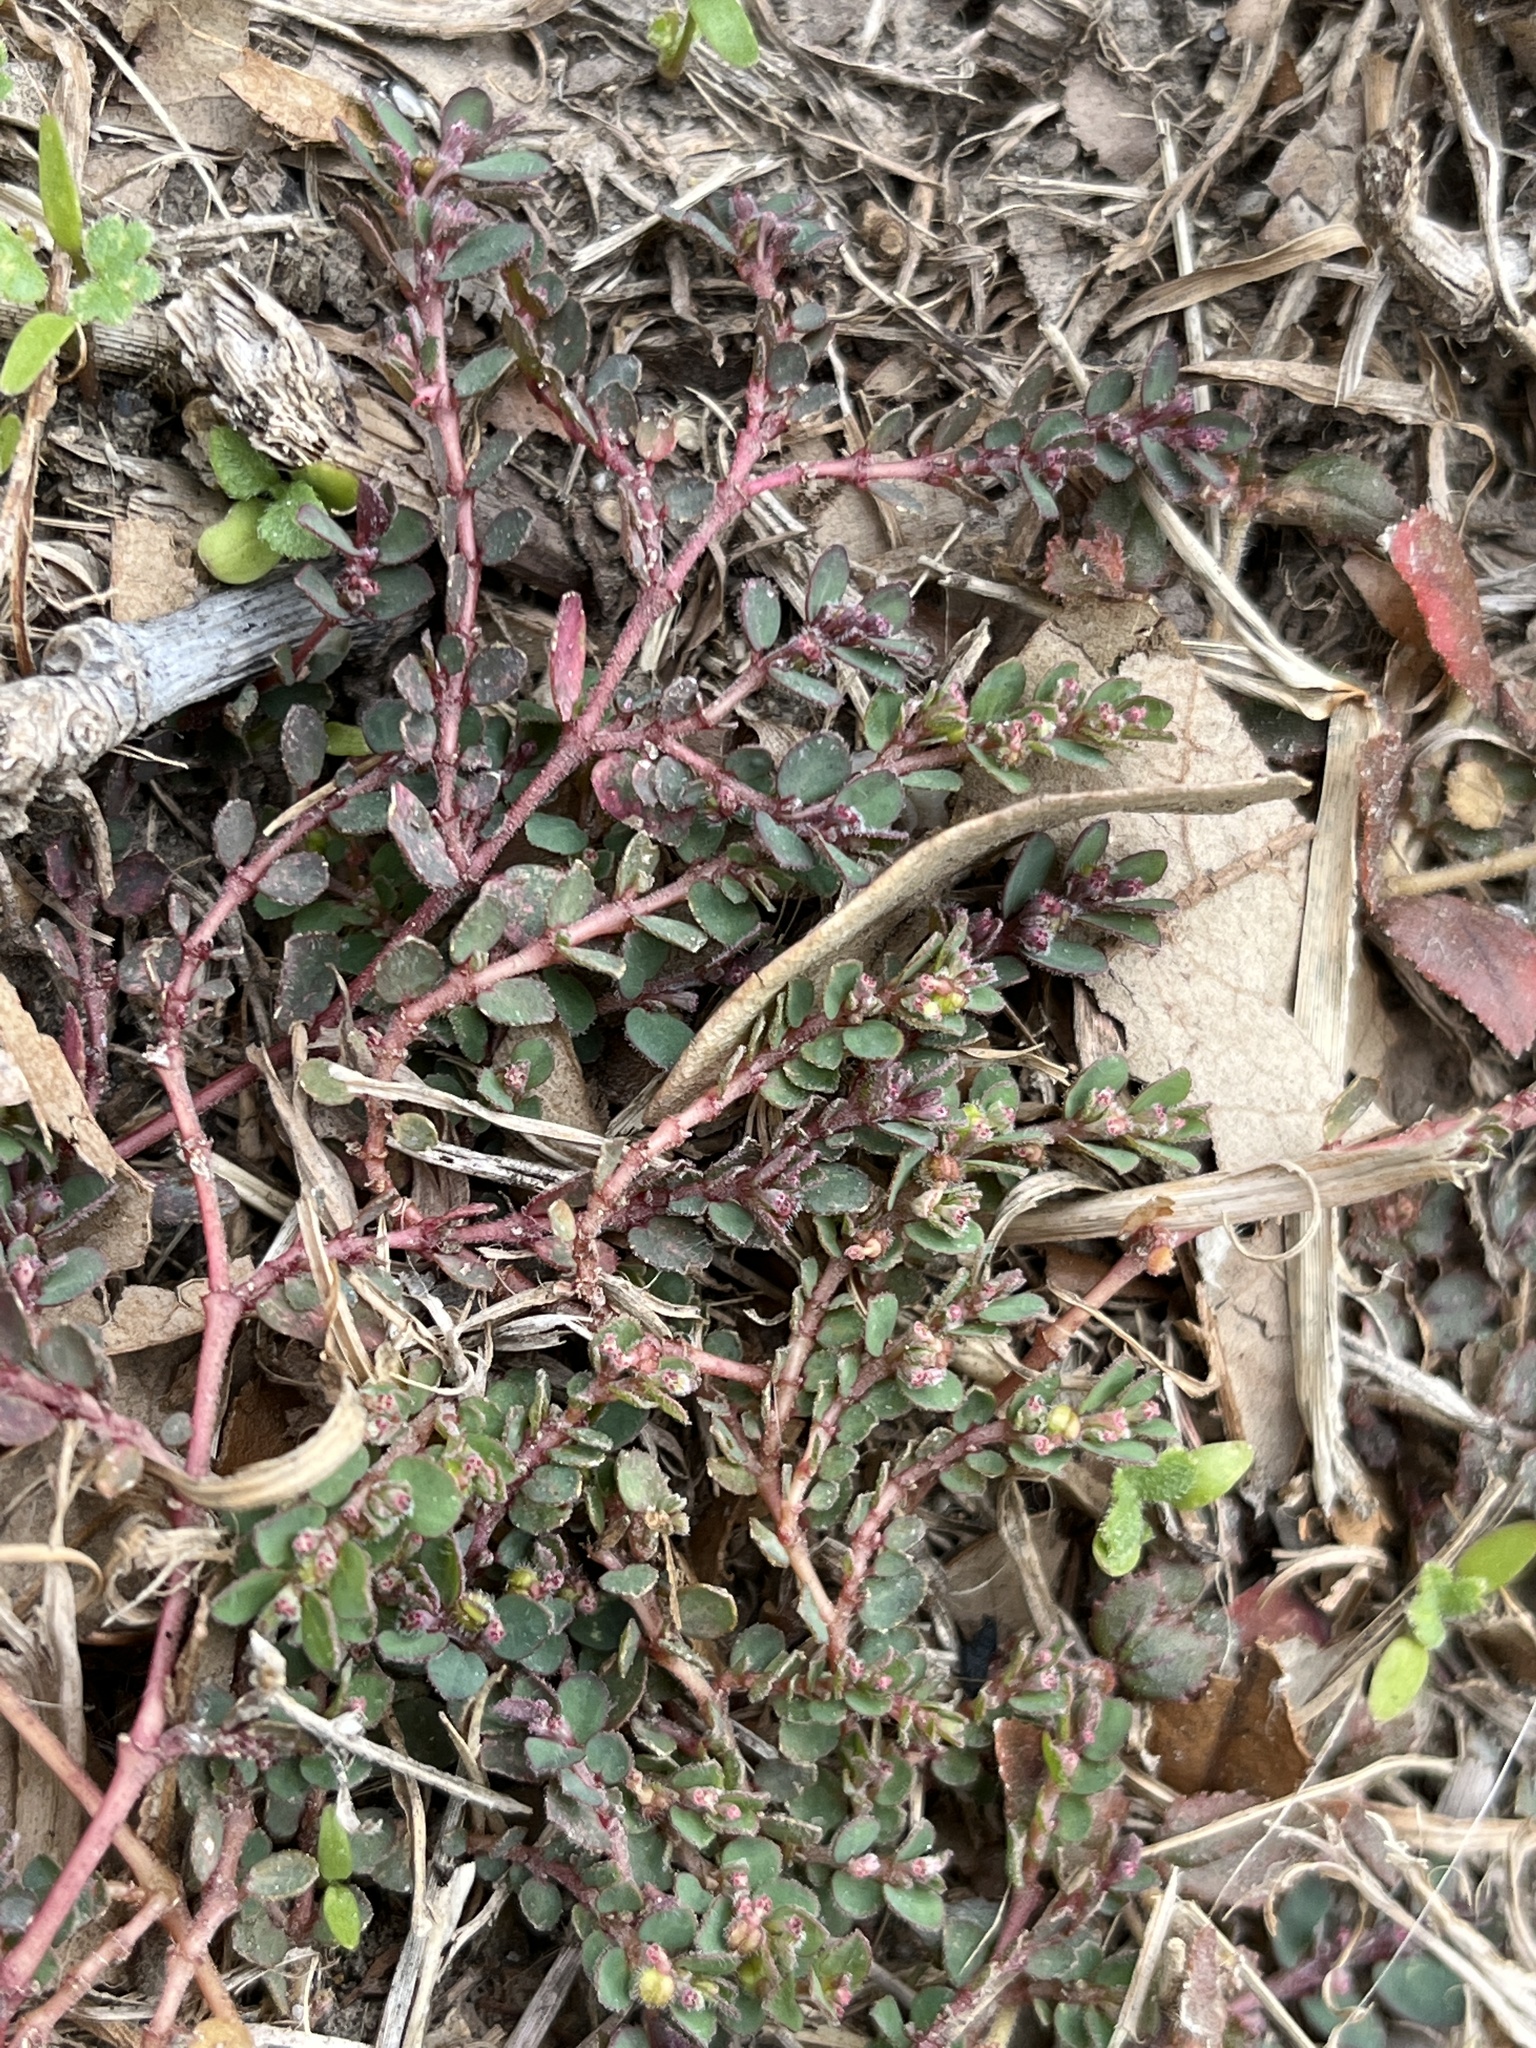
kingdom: Plantae
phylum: Tracheophyta
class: Magnoliopsida
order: Malpighiales
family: Euphorbiaceae
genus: Euphorbia
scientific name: Euphorbia prostrata
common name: Prostrate sandmat
